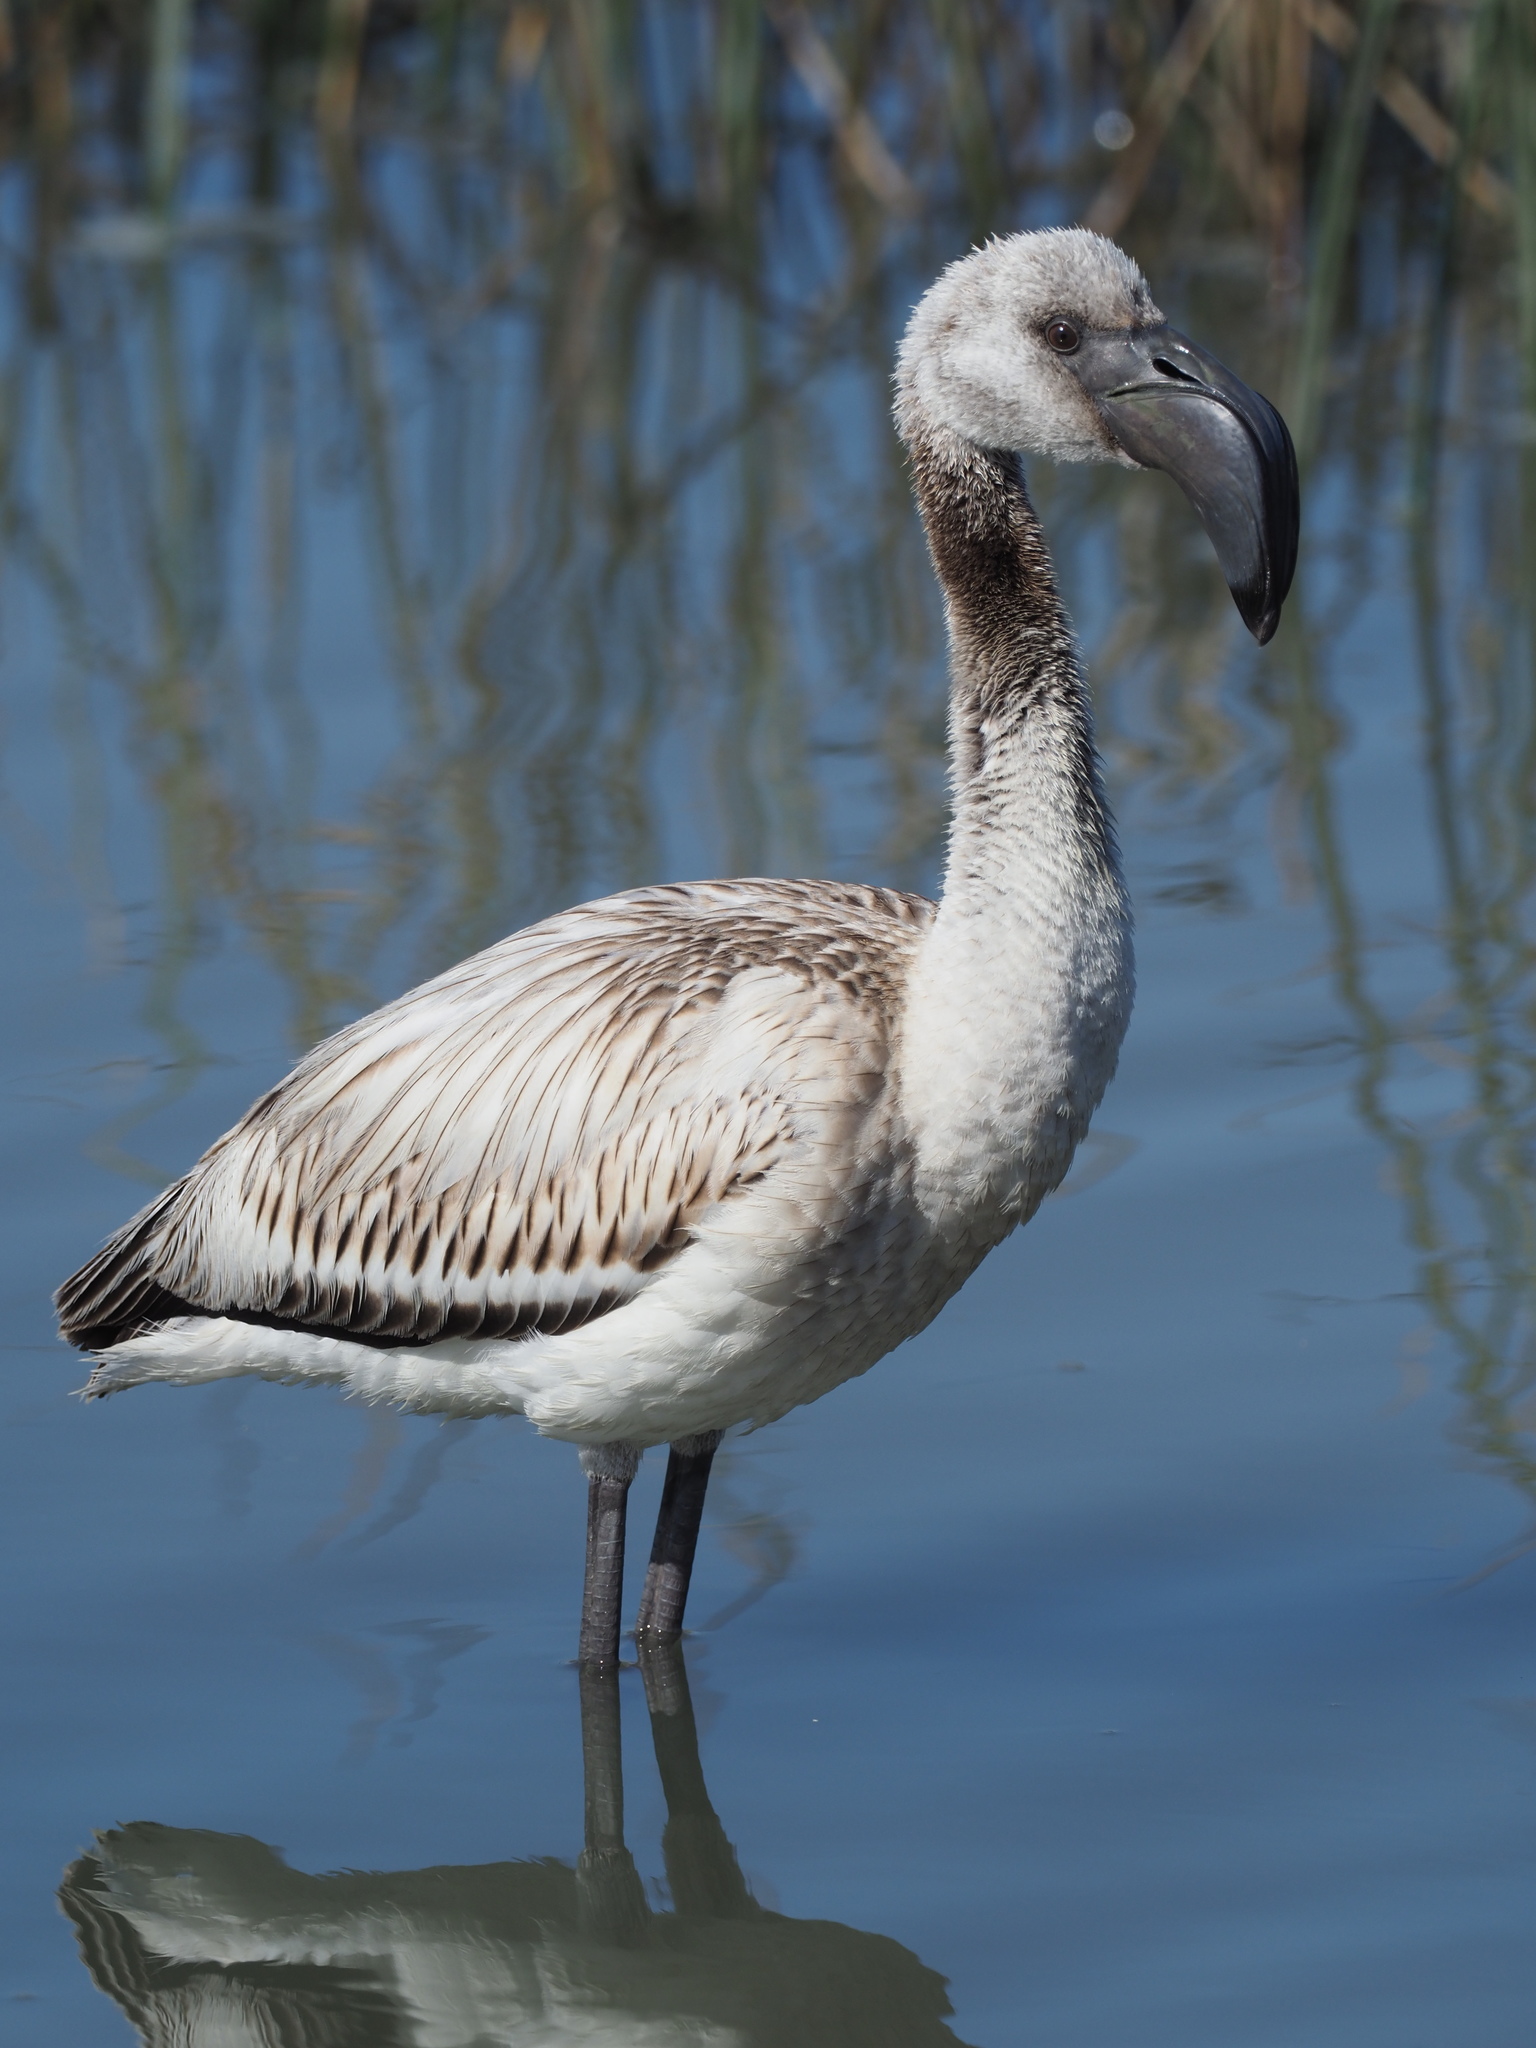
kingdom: Animalia
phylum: Chordata
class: Aves
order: Phoenicopteriformes
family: Phoenicopteridae
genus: Phoeniconaias
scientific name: Phoeniconaias minor
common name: Lesser flamingo
